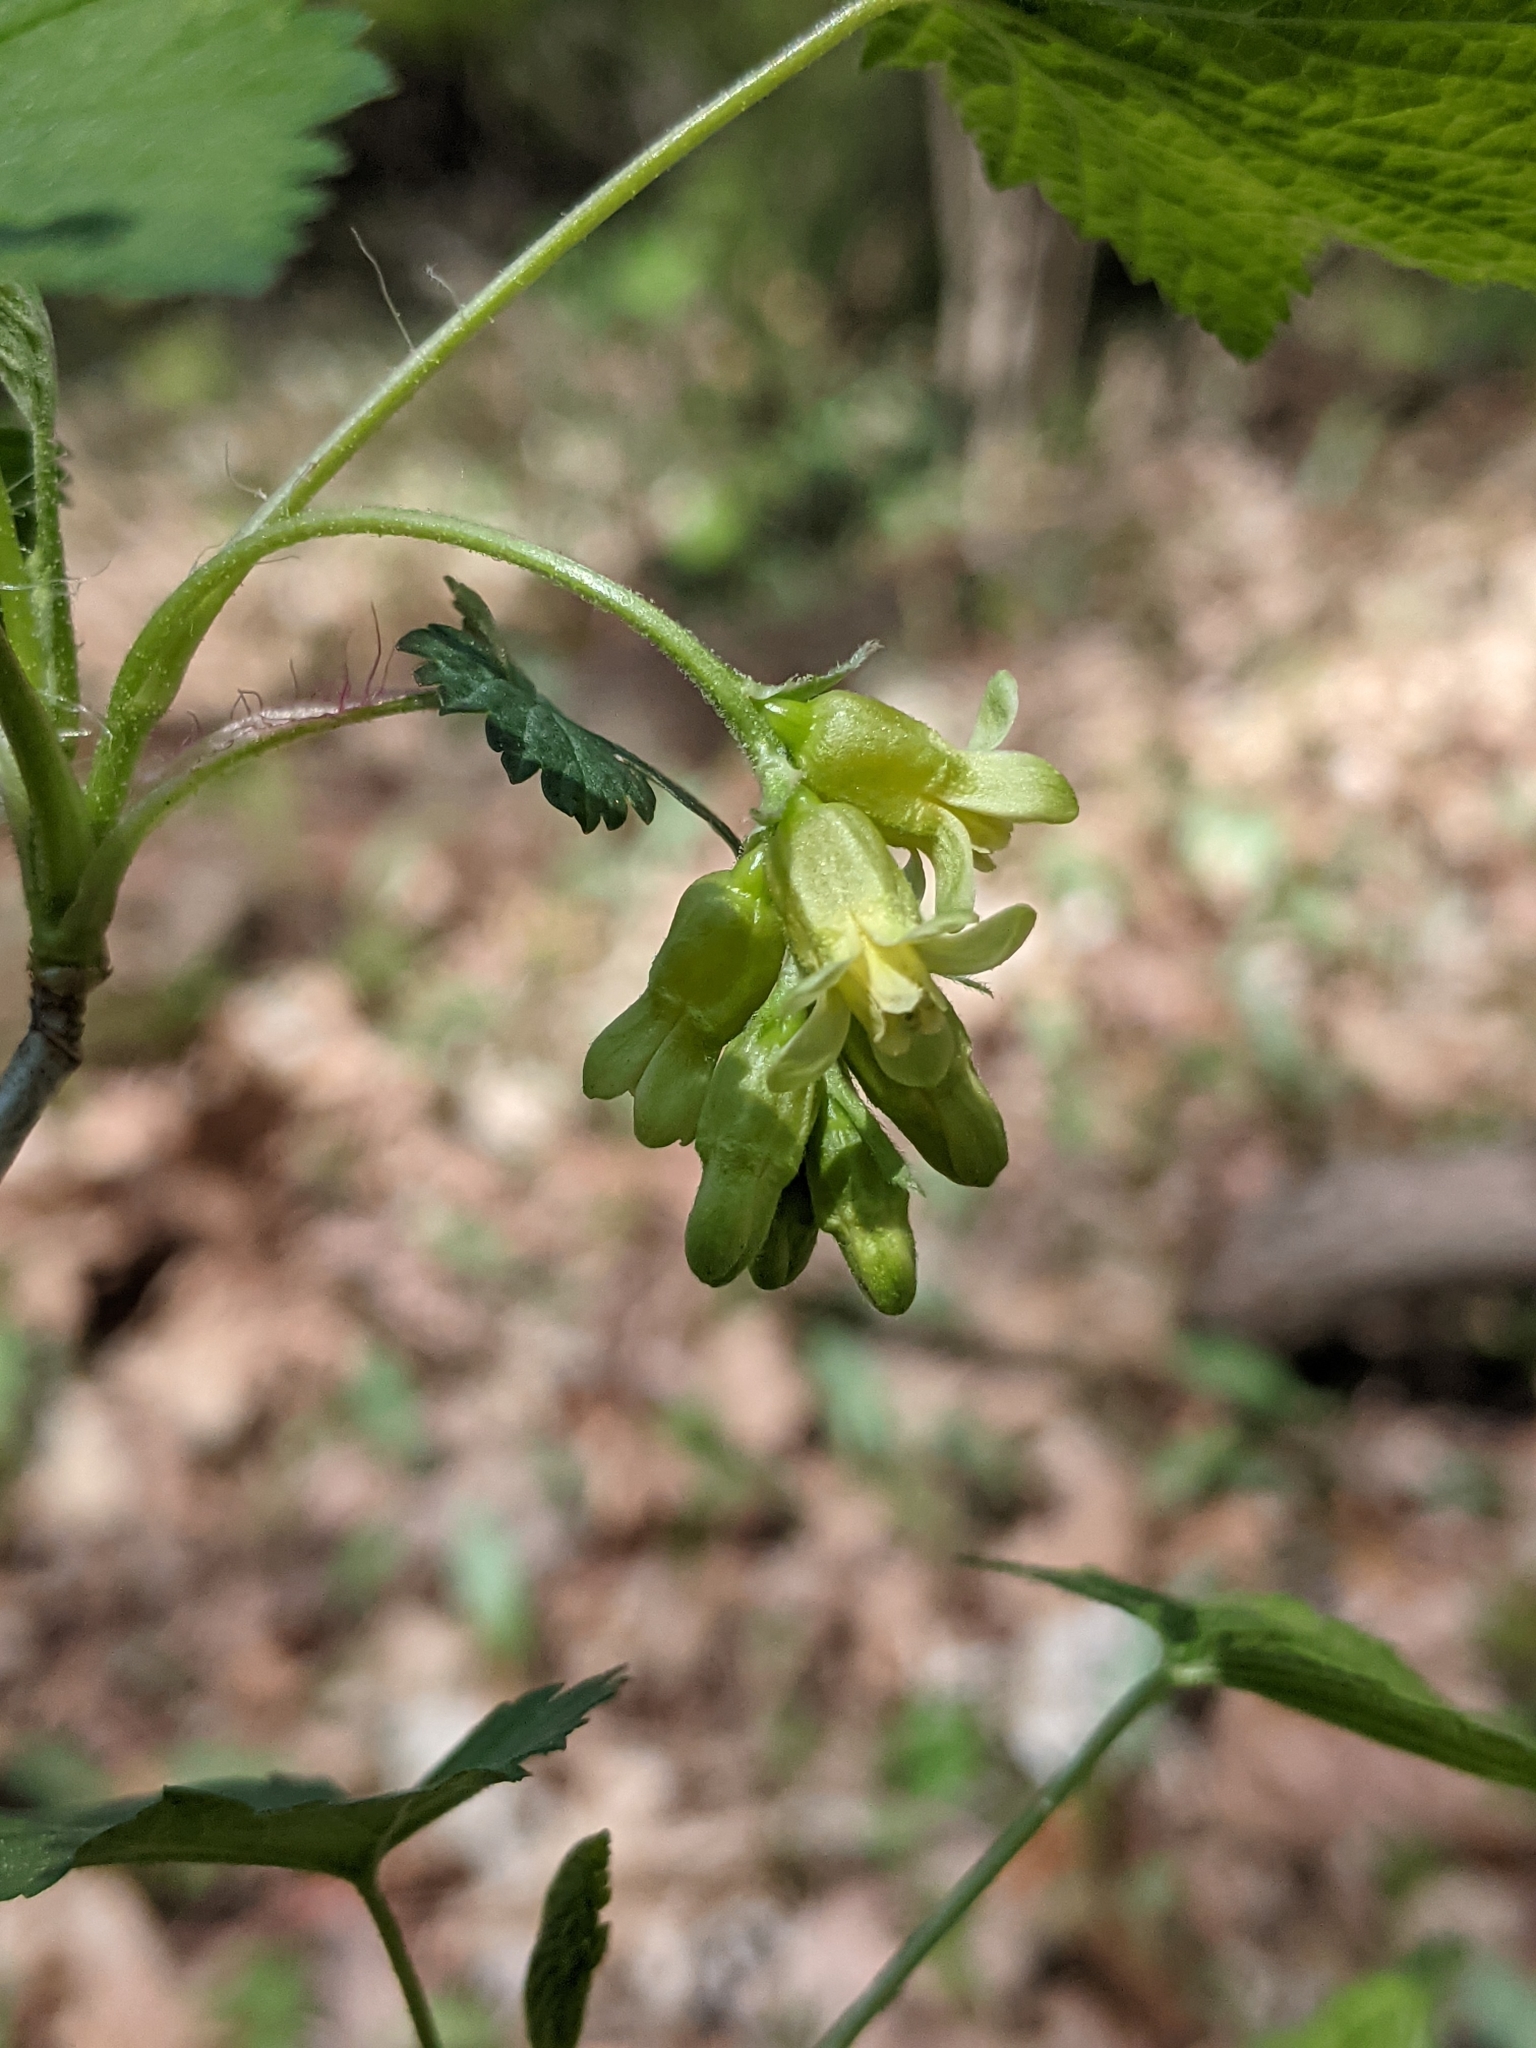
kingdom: Plantae
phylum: Tracheophyta
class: Magnoliopsida
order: Saxifragales
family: Grossulariaceae
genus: Ribes
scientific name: Ribes americanum
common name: American black currant
